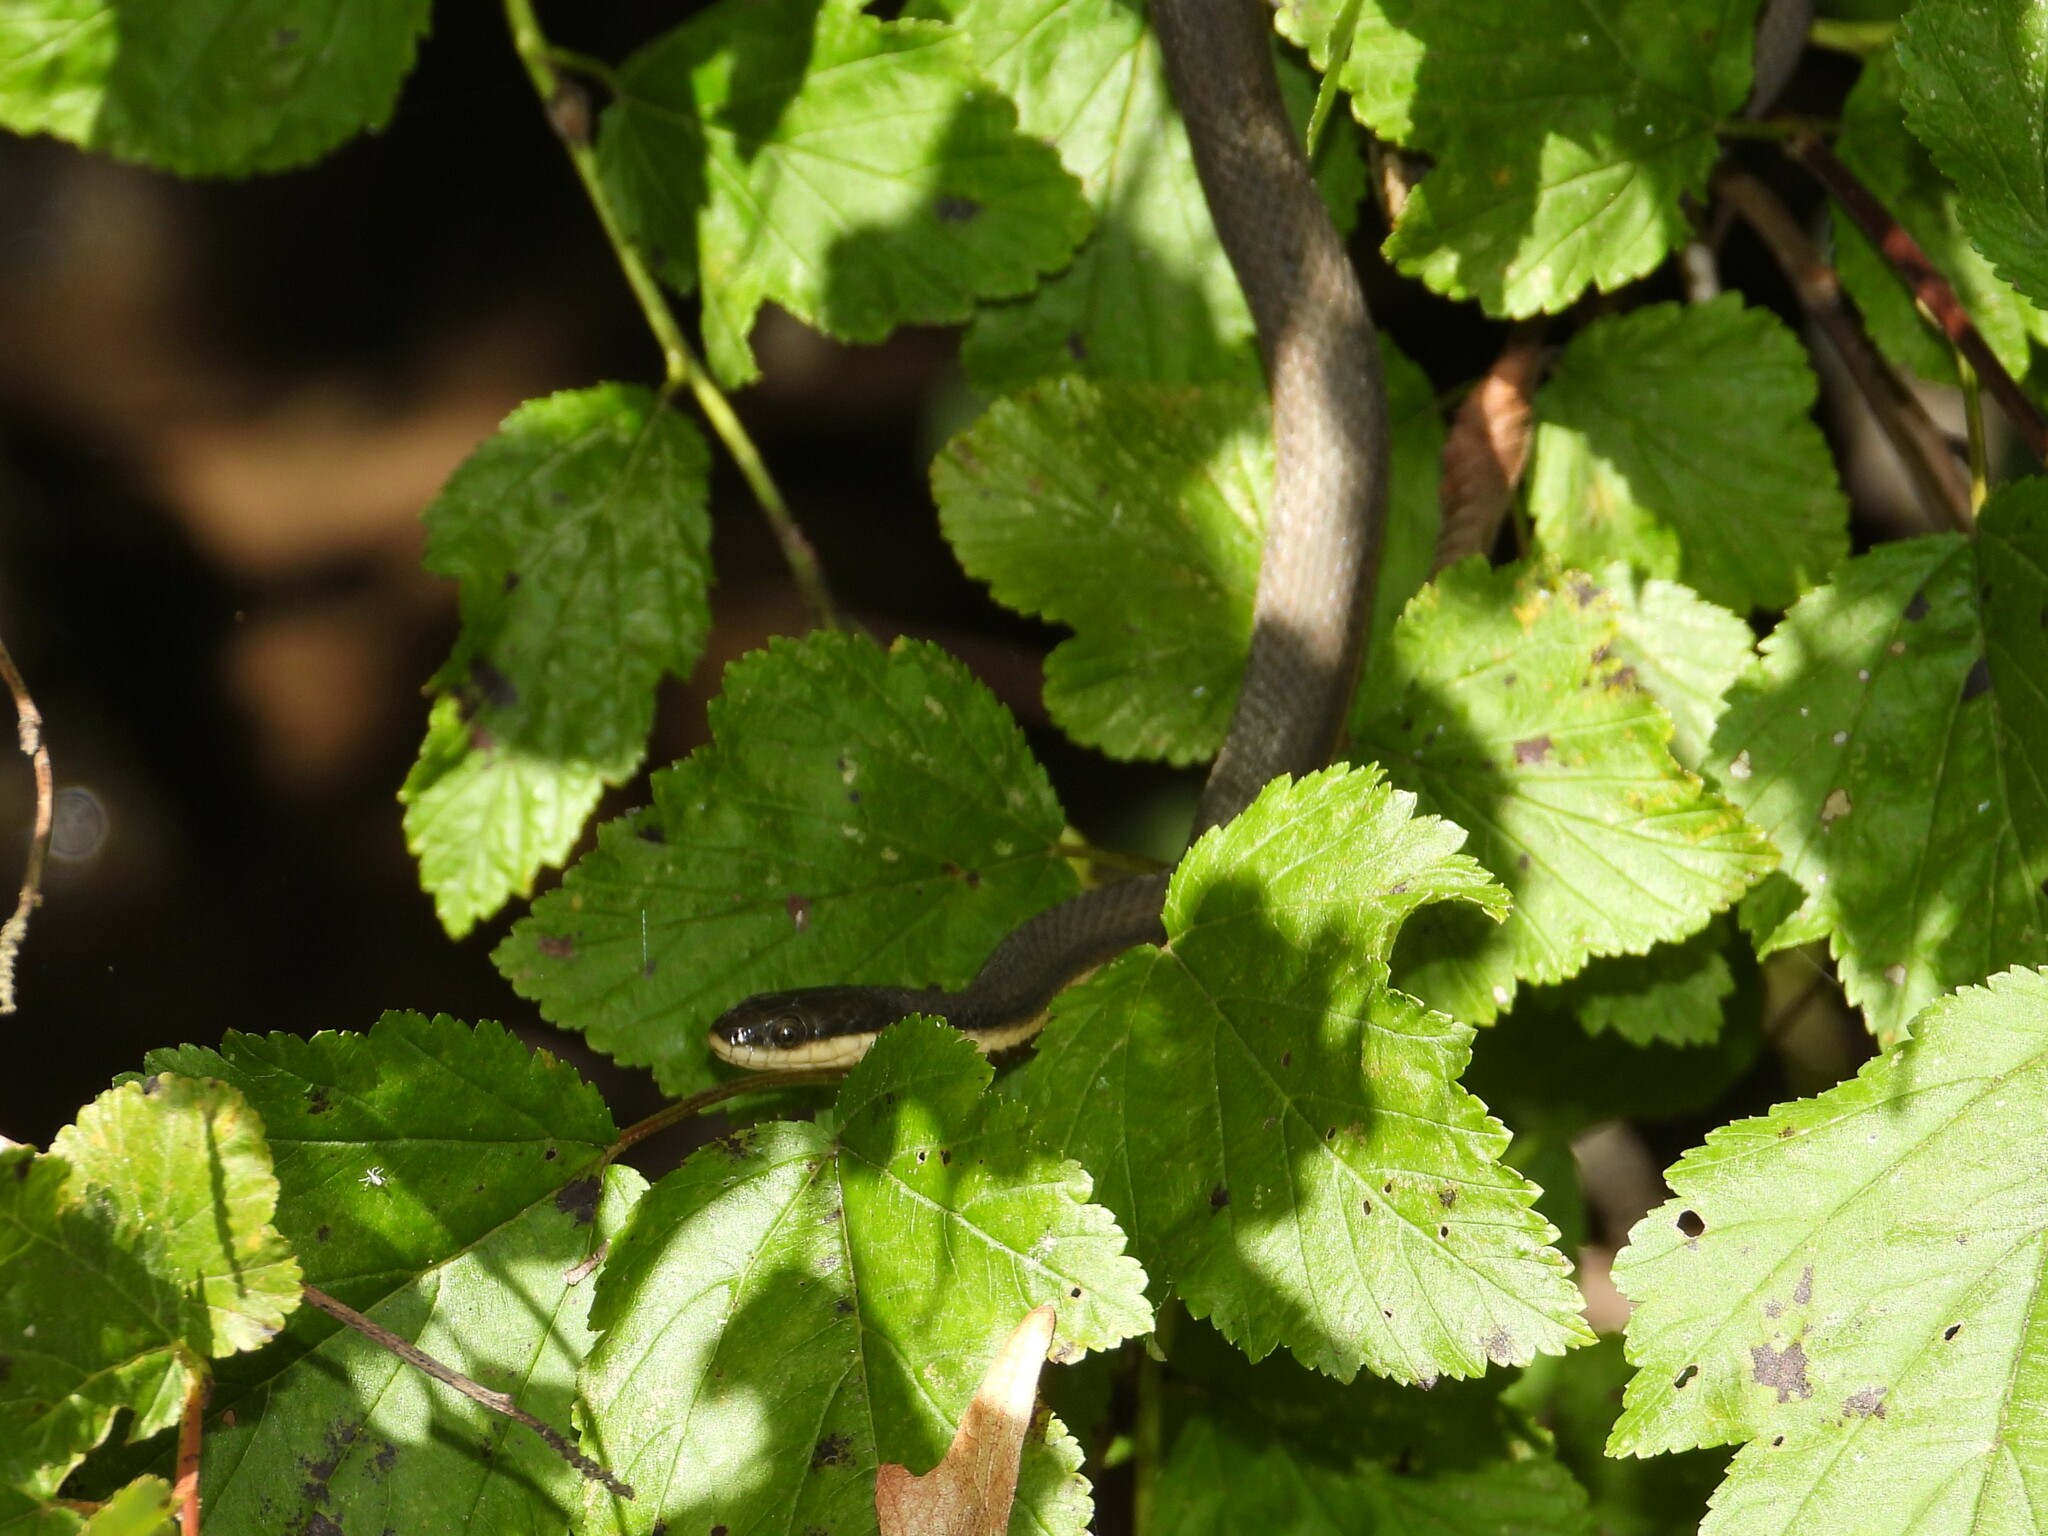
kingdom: Animalia
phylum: Chordata
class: Squamata
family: Colubridae
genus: Regina
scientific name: Regina septemvittata
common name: Queen snake
